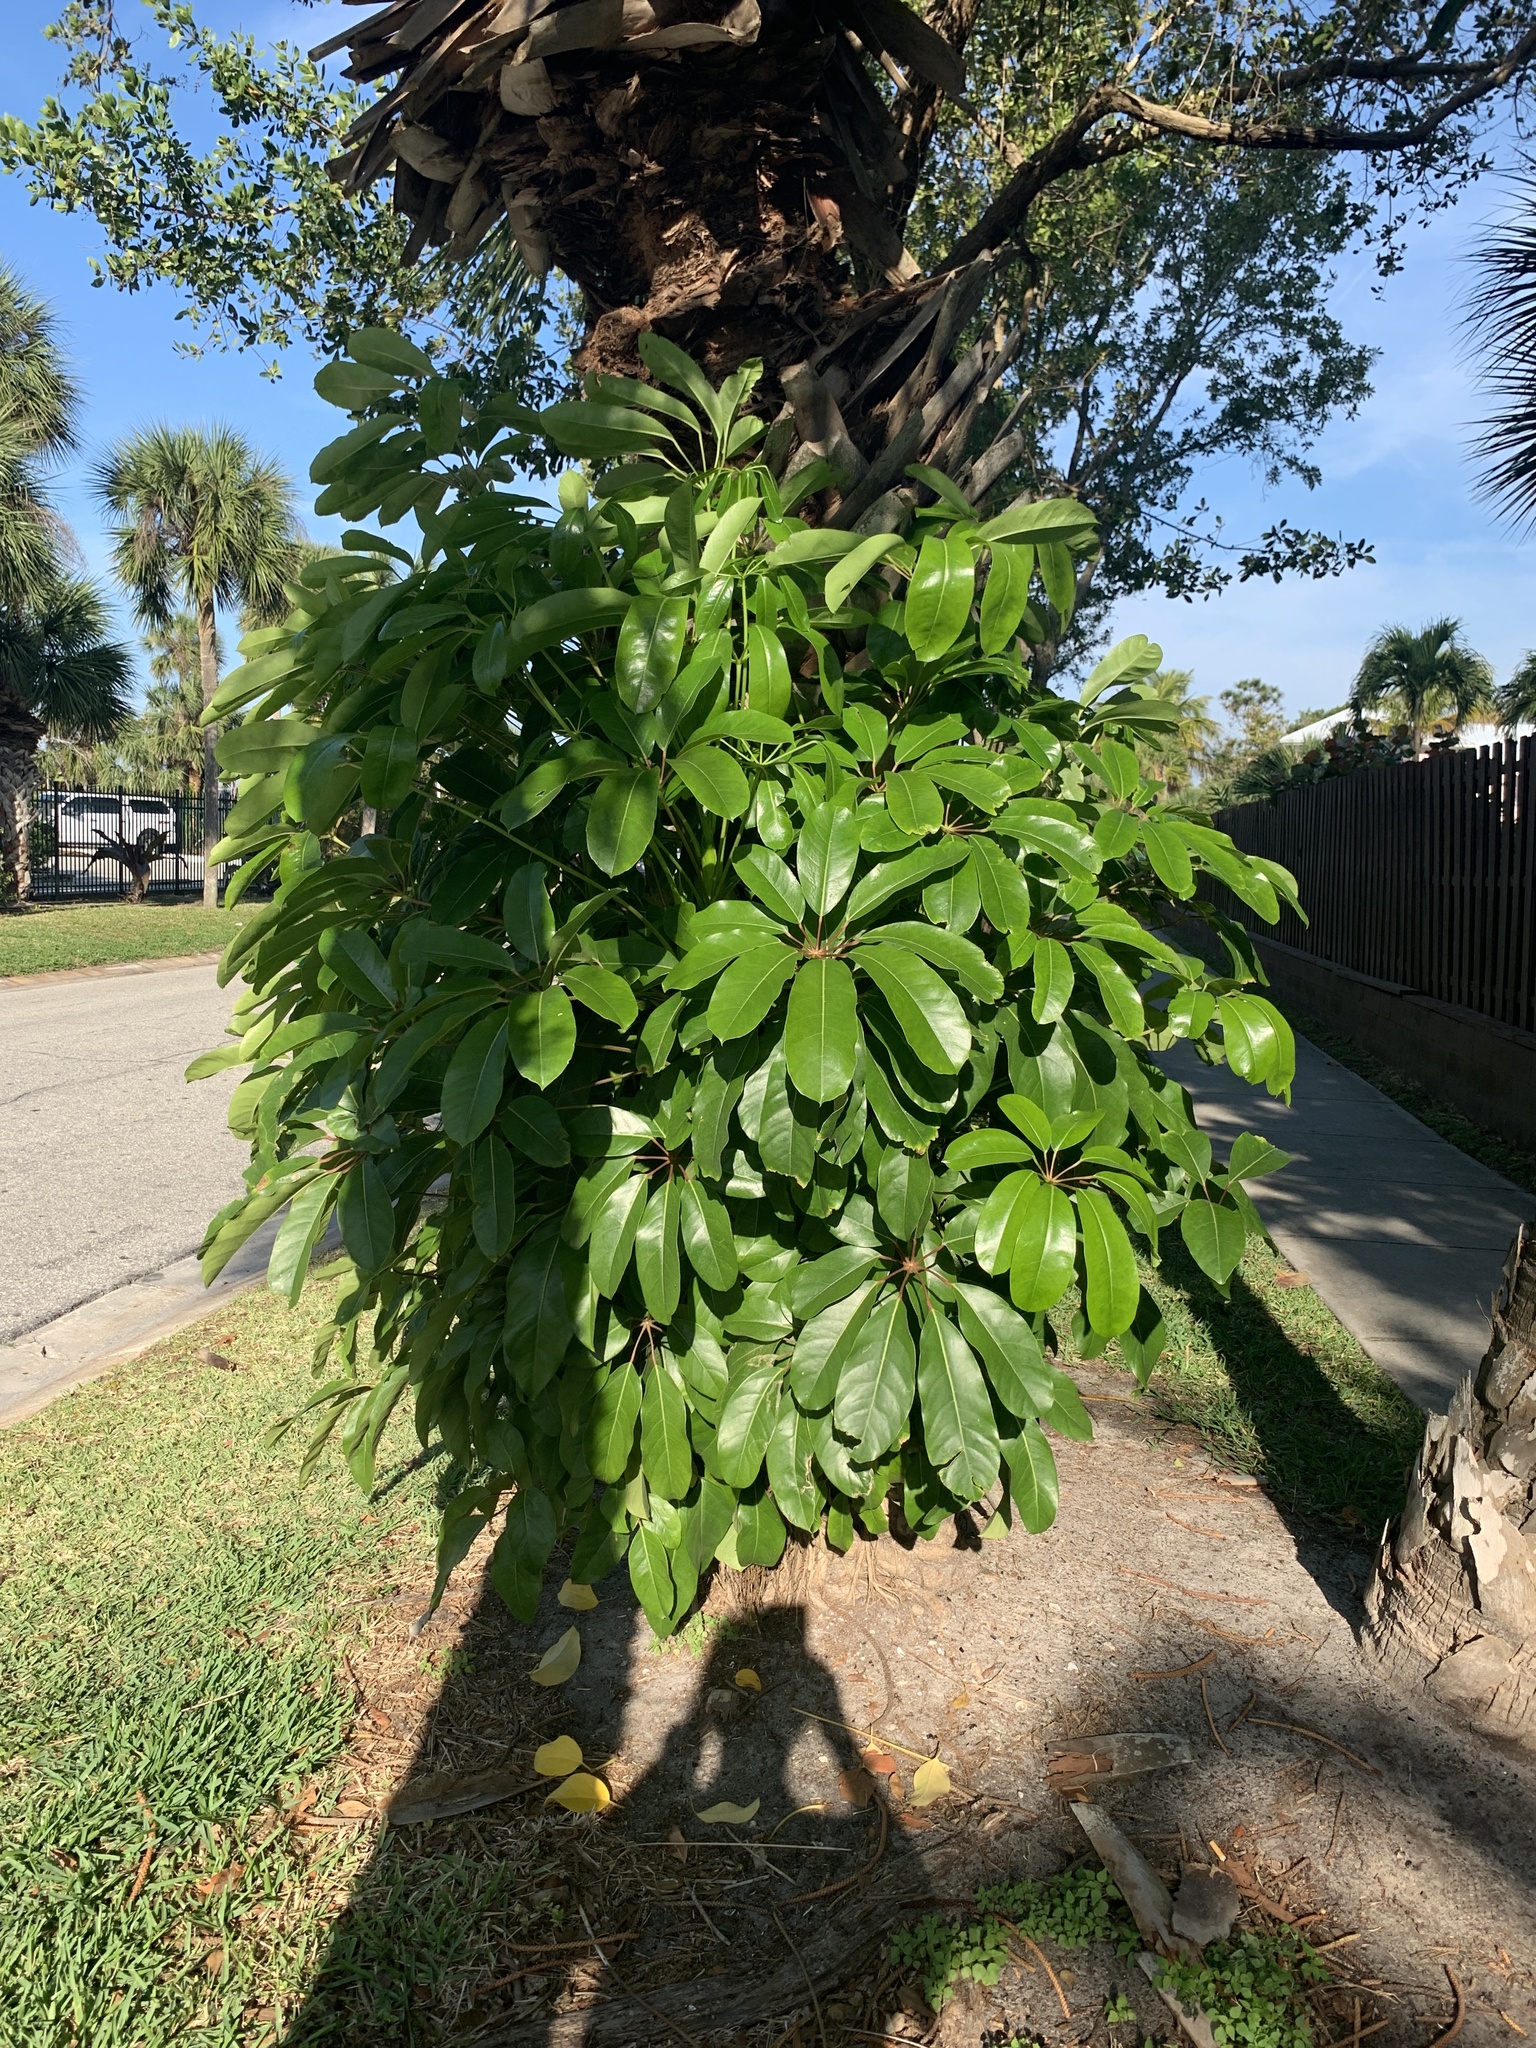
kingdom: Plantae
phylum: Tracheophyta
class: Magnoliopsida
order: Apiales
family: Araliaceae
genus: Heptapleurum
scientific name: Heptapleurum actinophyllum
